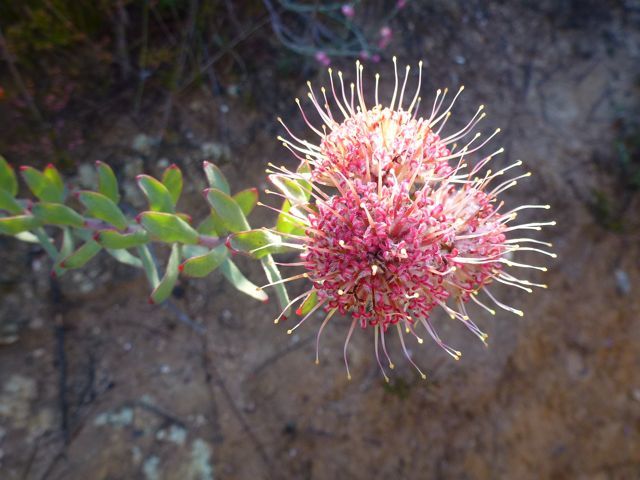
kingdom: Plantae
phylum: Tracheophyta
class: Magnoliopsida
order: Proteales
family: Proteaceae
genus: Leucospermum
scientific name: Leucospermum calligerum
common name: Arid pincushion
